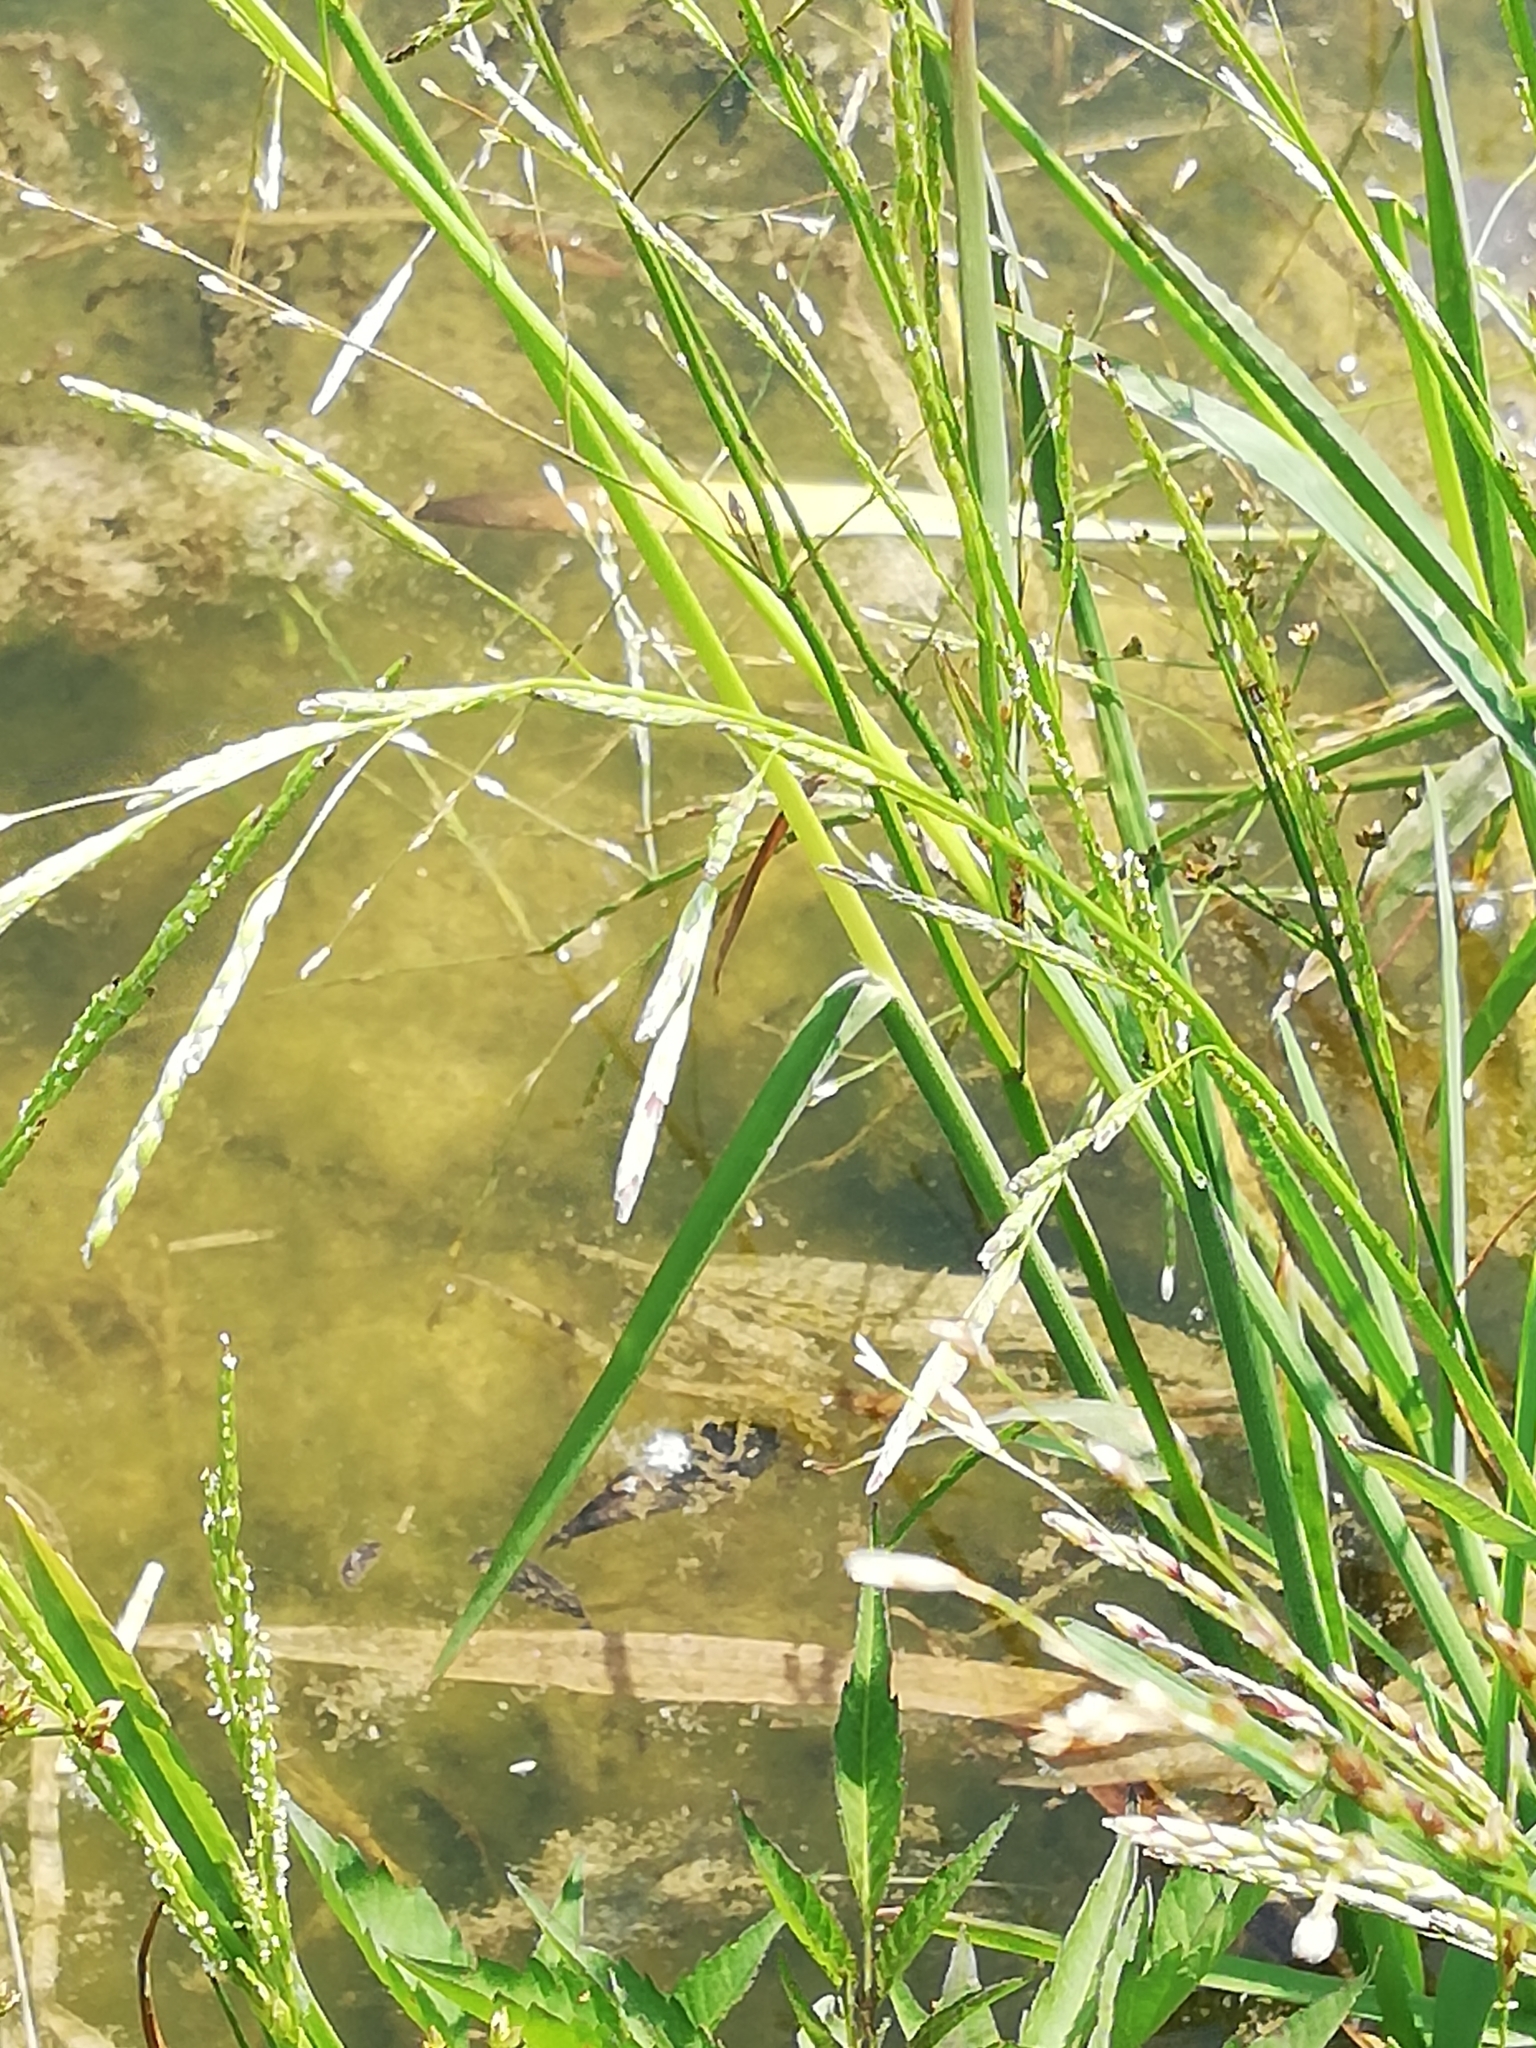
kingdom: Plantae
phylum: Tracheophyta
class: Liliopsida
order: Poales
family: Poaceae
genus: Glyceria
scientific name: Glyceria fluitans
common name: Floating sweet-grass
